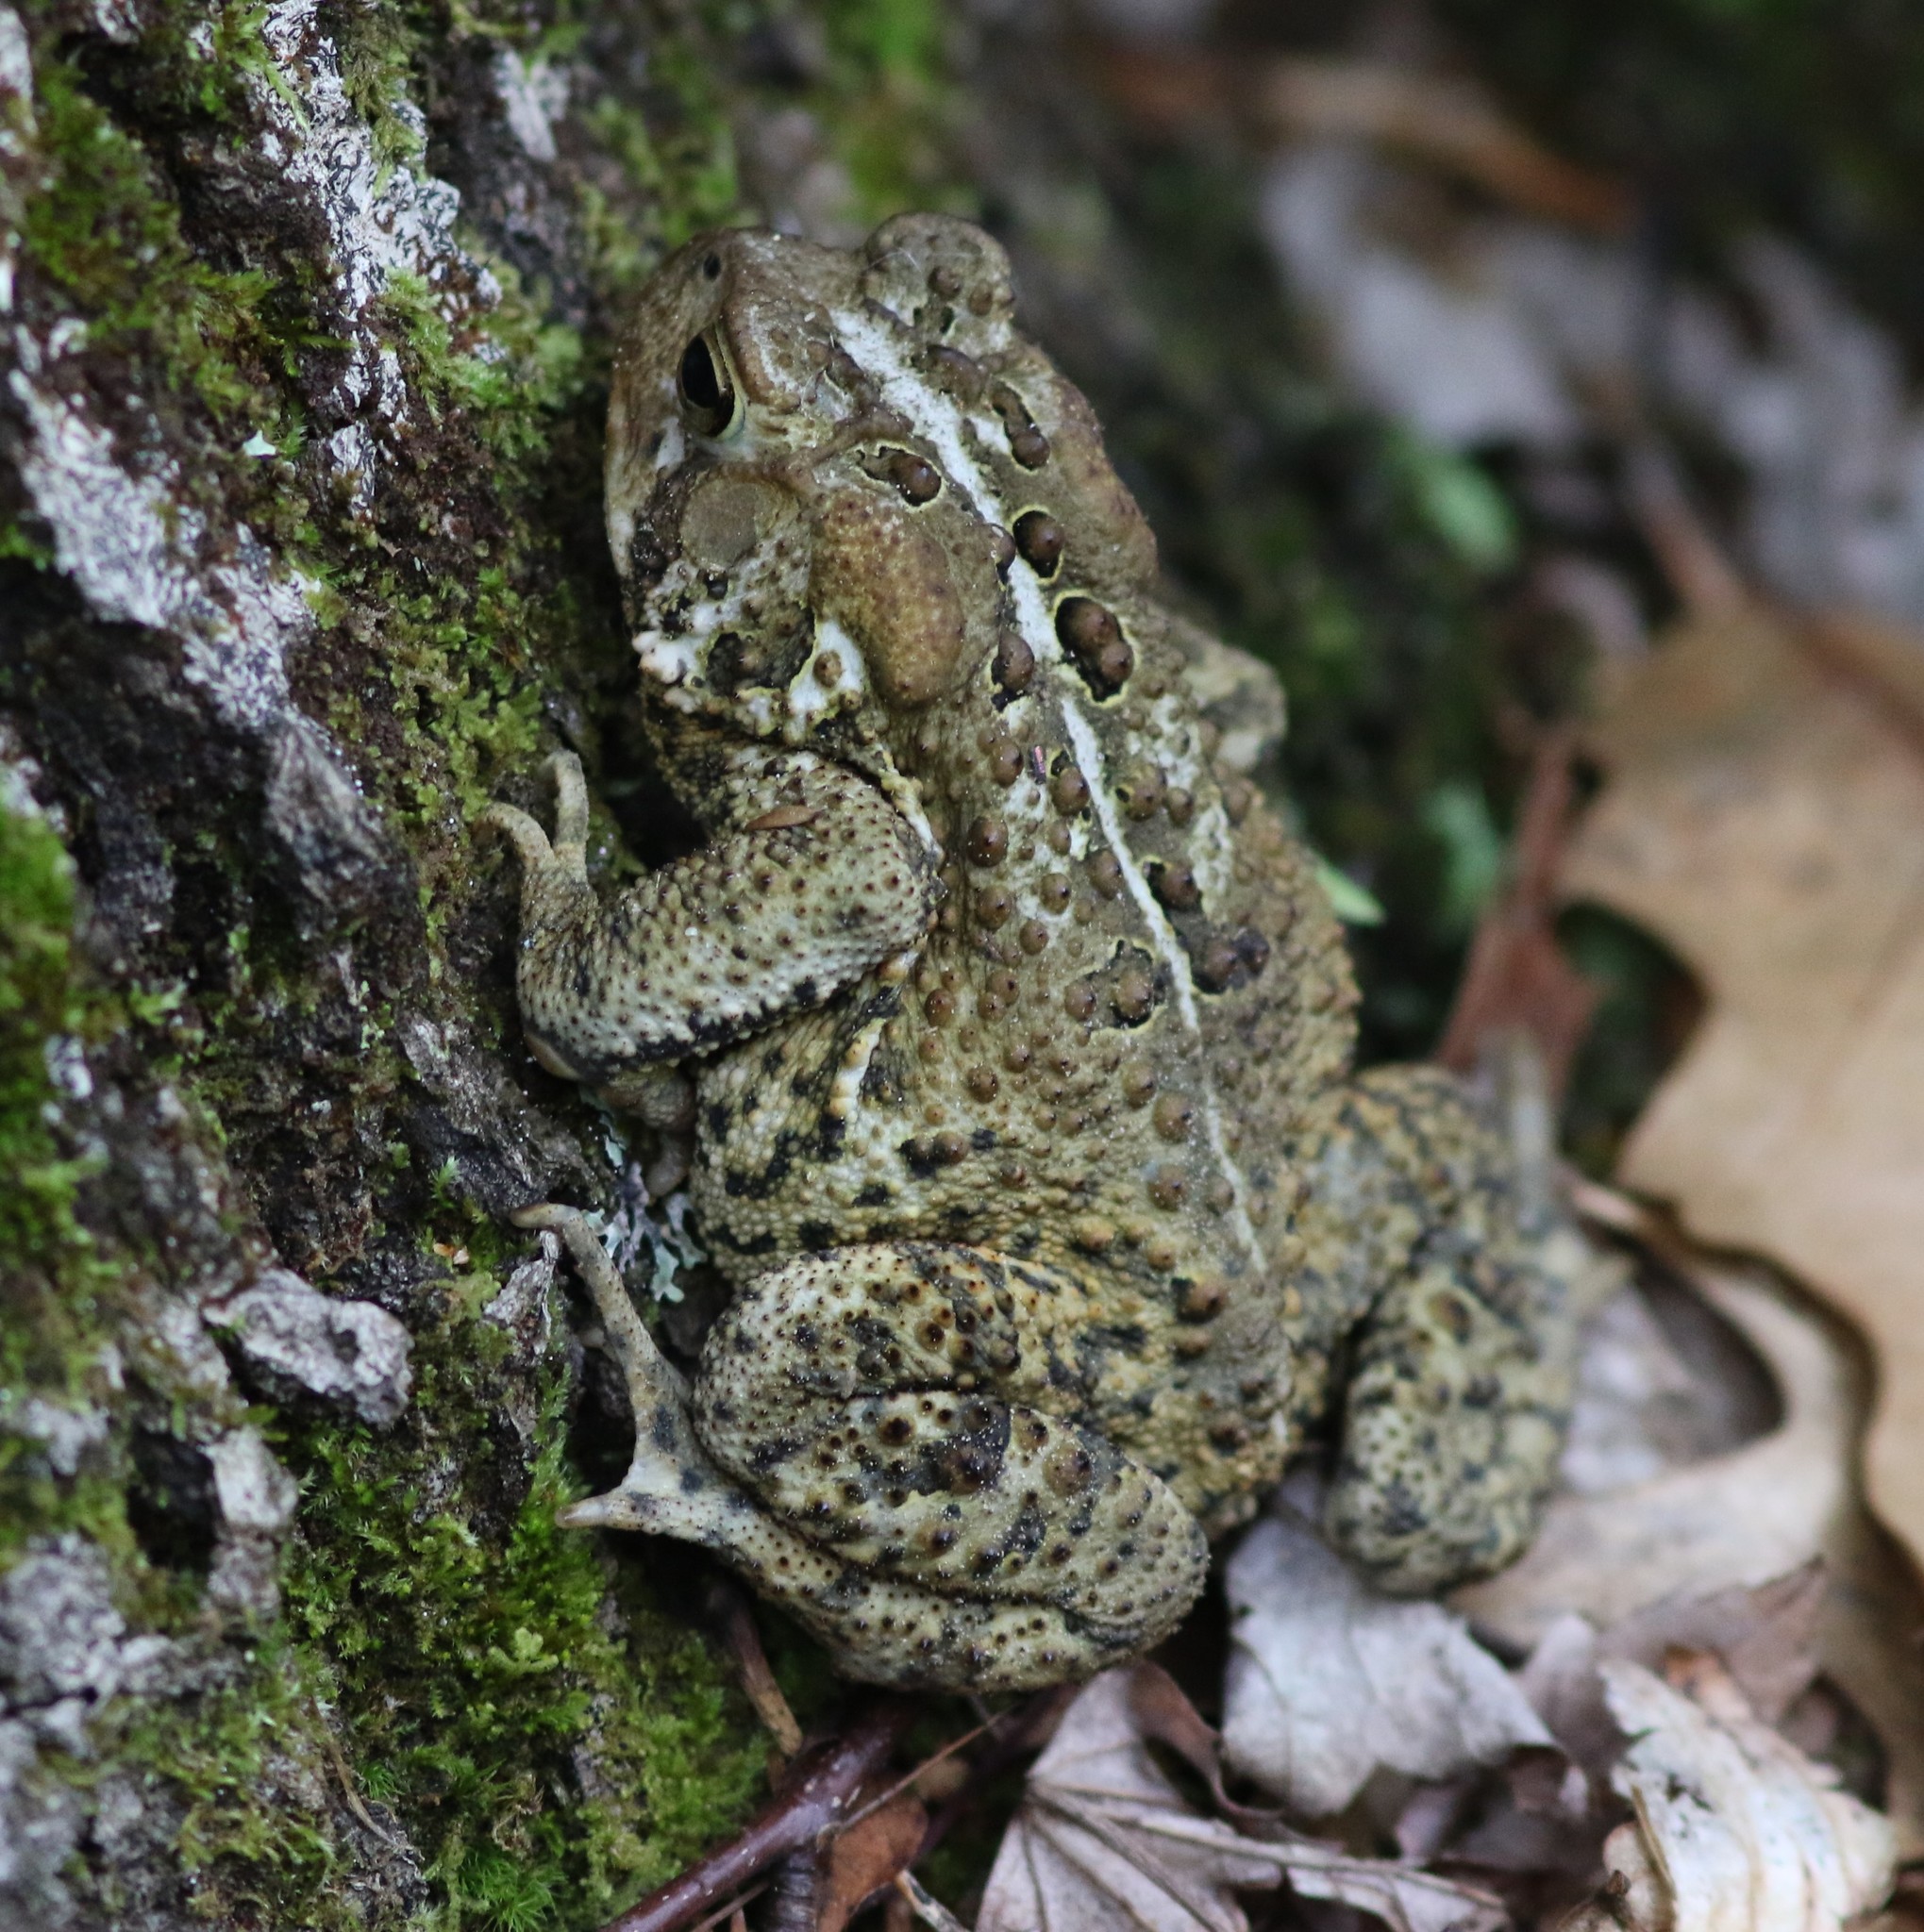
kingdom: Animalia
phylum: Chordata
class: Amphibia
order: Anura
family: Bufonidae
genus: Anaxyrus
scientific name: Anaxyrus americanus
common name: American toad
